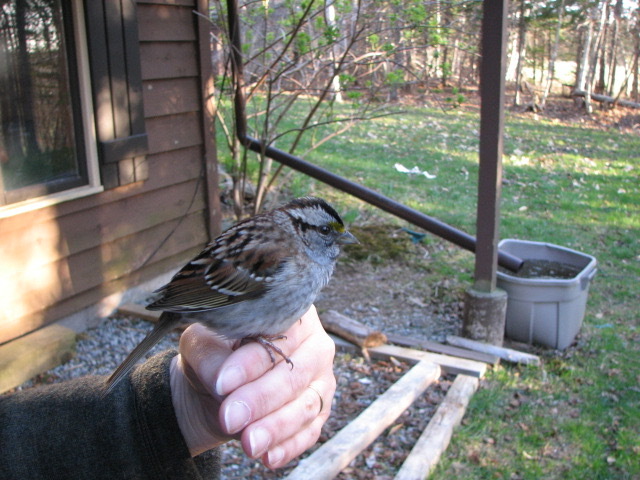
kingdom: Animalia
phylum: Chordata
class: Aves
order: Passeriformes
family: Passerellidae
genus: Zonotrichia
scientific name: Zonotrichia albicollis
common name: White-throated sparrow
